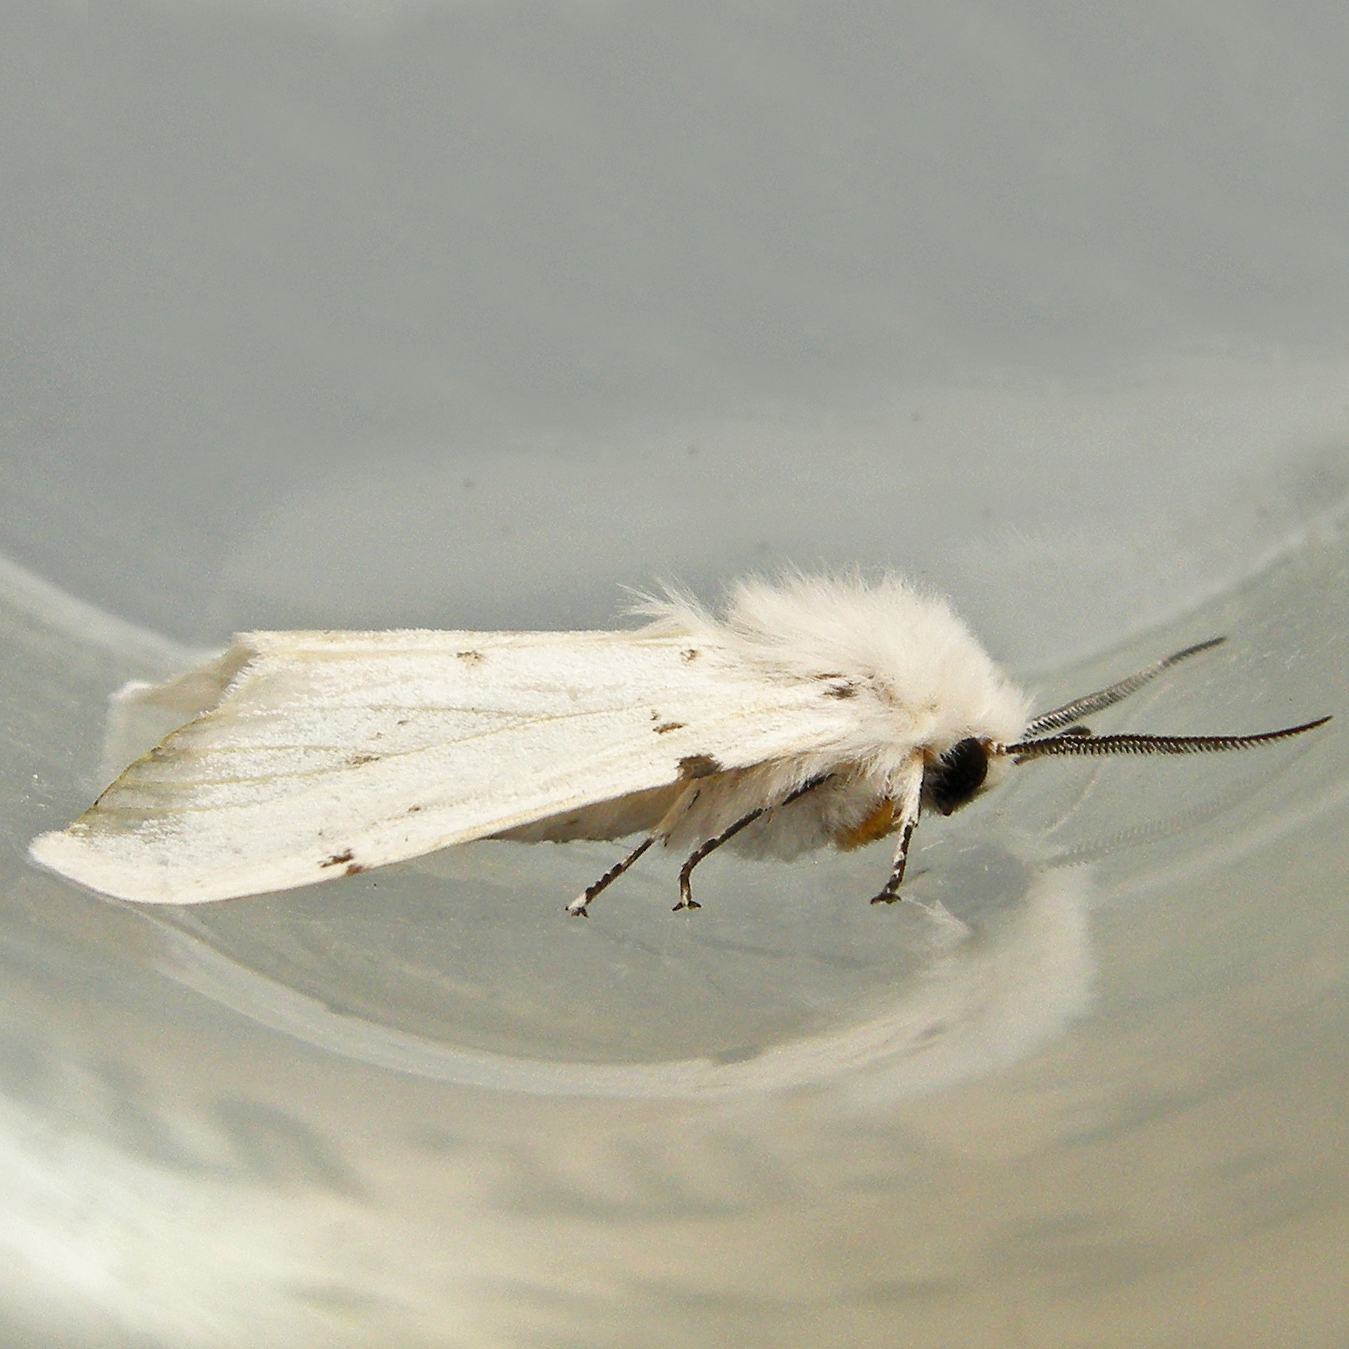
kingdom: Animalia
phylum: Arthropoda
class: Insecta
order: Lepidoptera
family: Erebidae
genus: Hyphantria
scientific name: Hyphantria cunea
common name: American white moth
